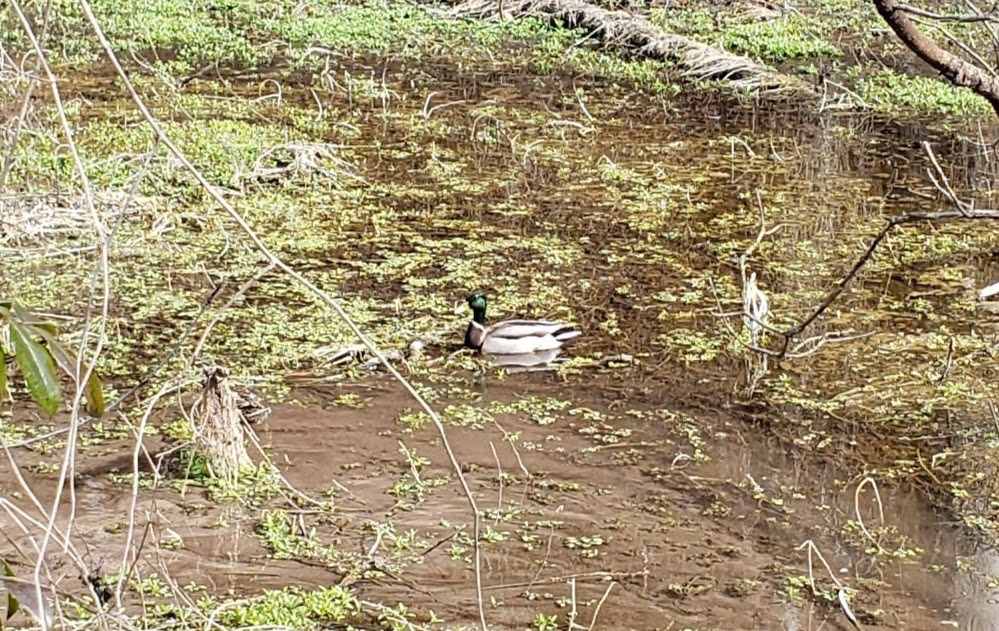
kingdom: Animalia
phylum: Chordata
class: Aves
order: Anseriformes
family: Anatidae
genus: Anas
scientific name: Anas platyrhynchos
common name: Mallard
